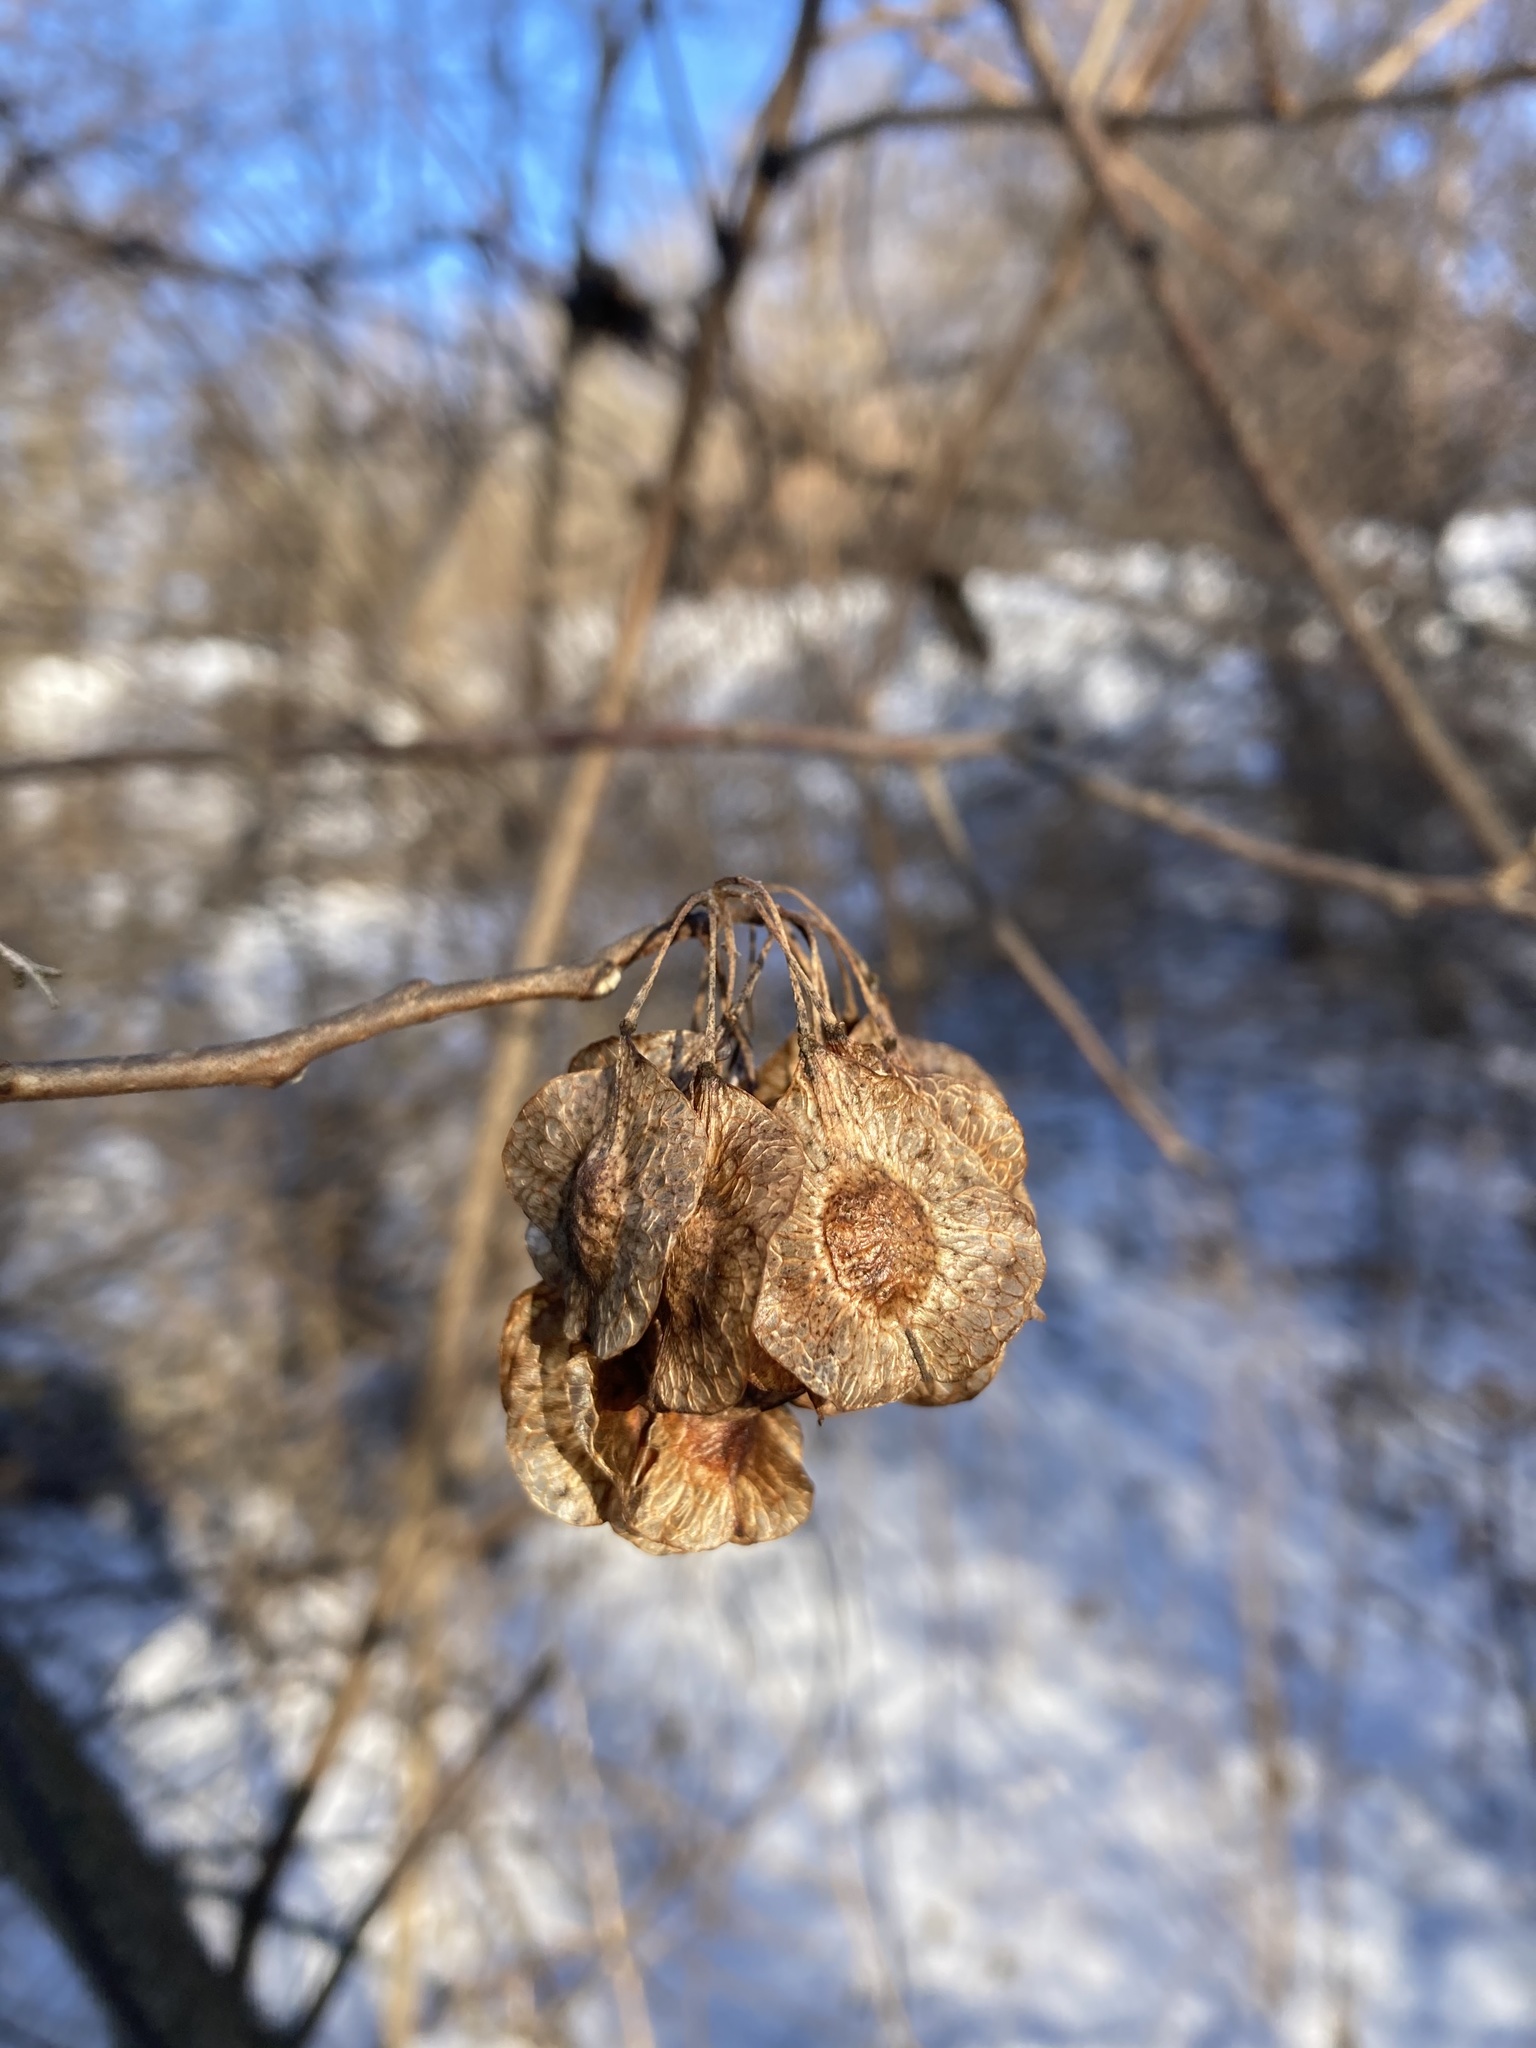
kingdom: Plantae
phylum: Tracheophyta
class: Magnoliopsida
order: Sapindales
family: Rutaceae
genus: Ptelea
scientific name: Ptelea trifoliata
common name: Common hop-tree
